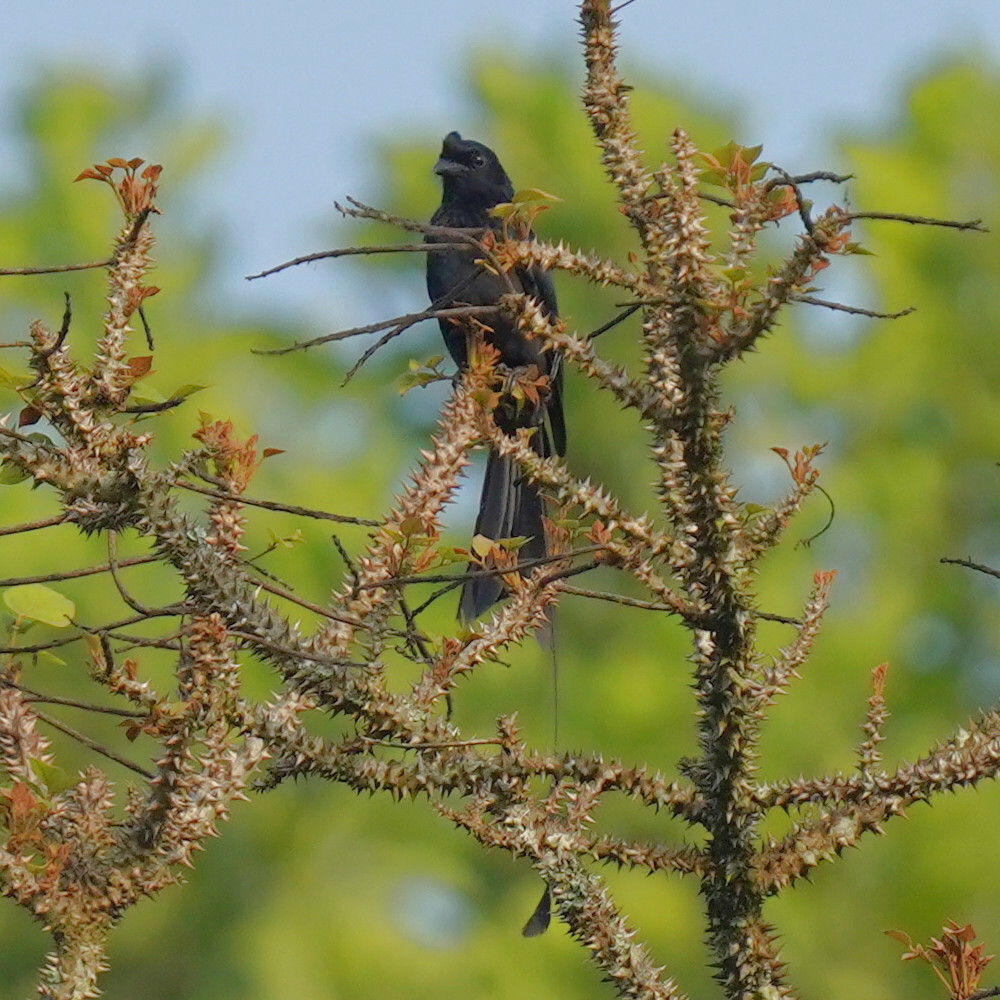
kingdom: Animalia
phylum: Chordata
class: Aves
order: Passeriformes
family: Dicruridae
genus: Dicrurus
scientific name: Dicrurus paradiseus
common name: Greater racket-tailed drongo
